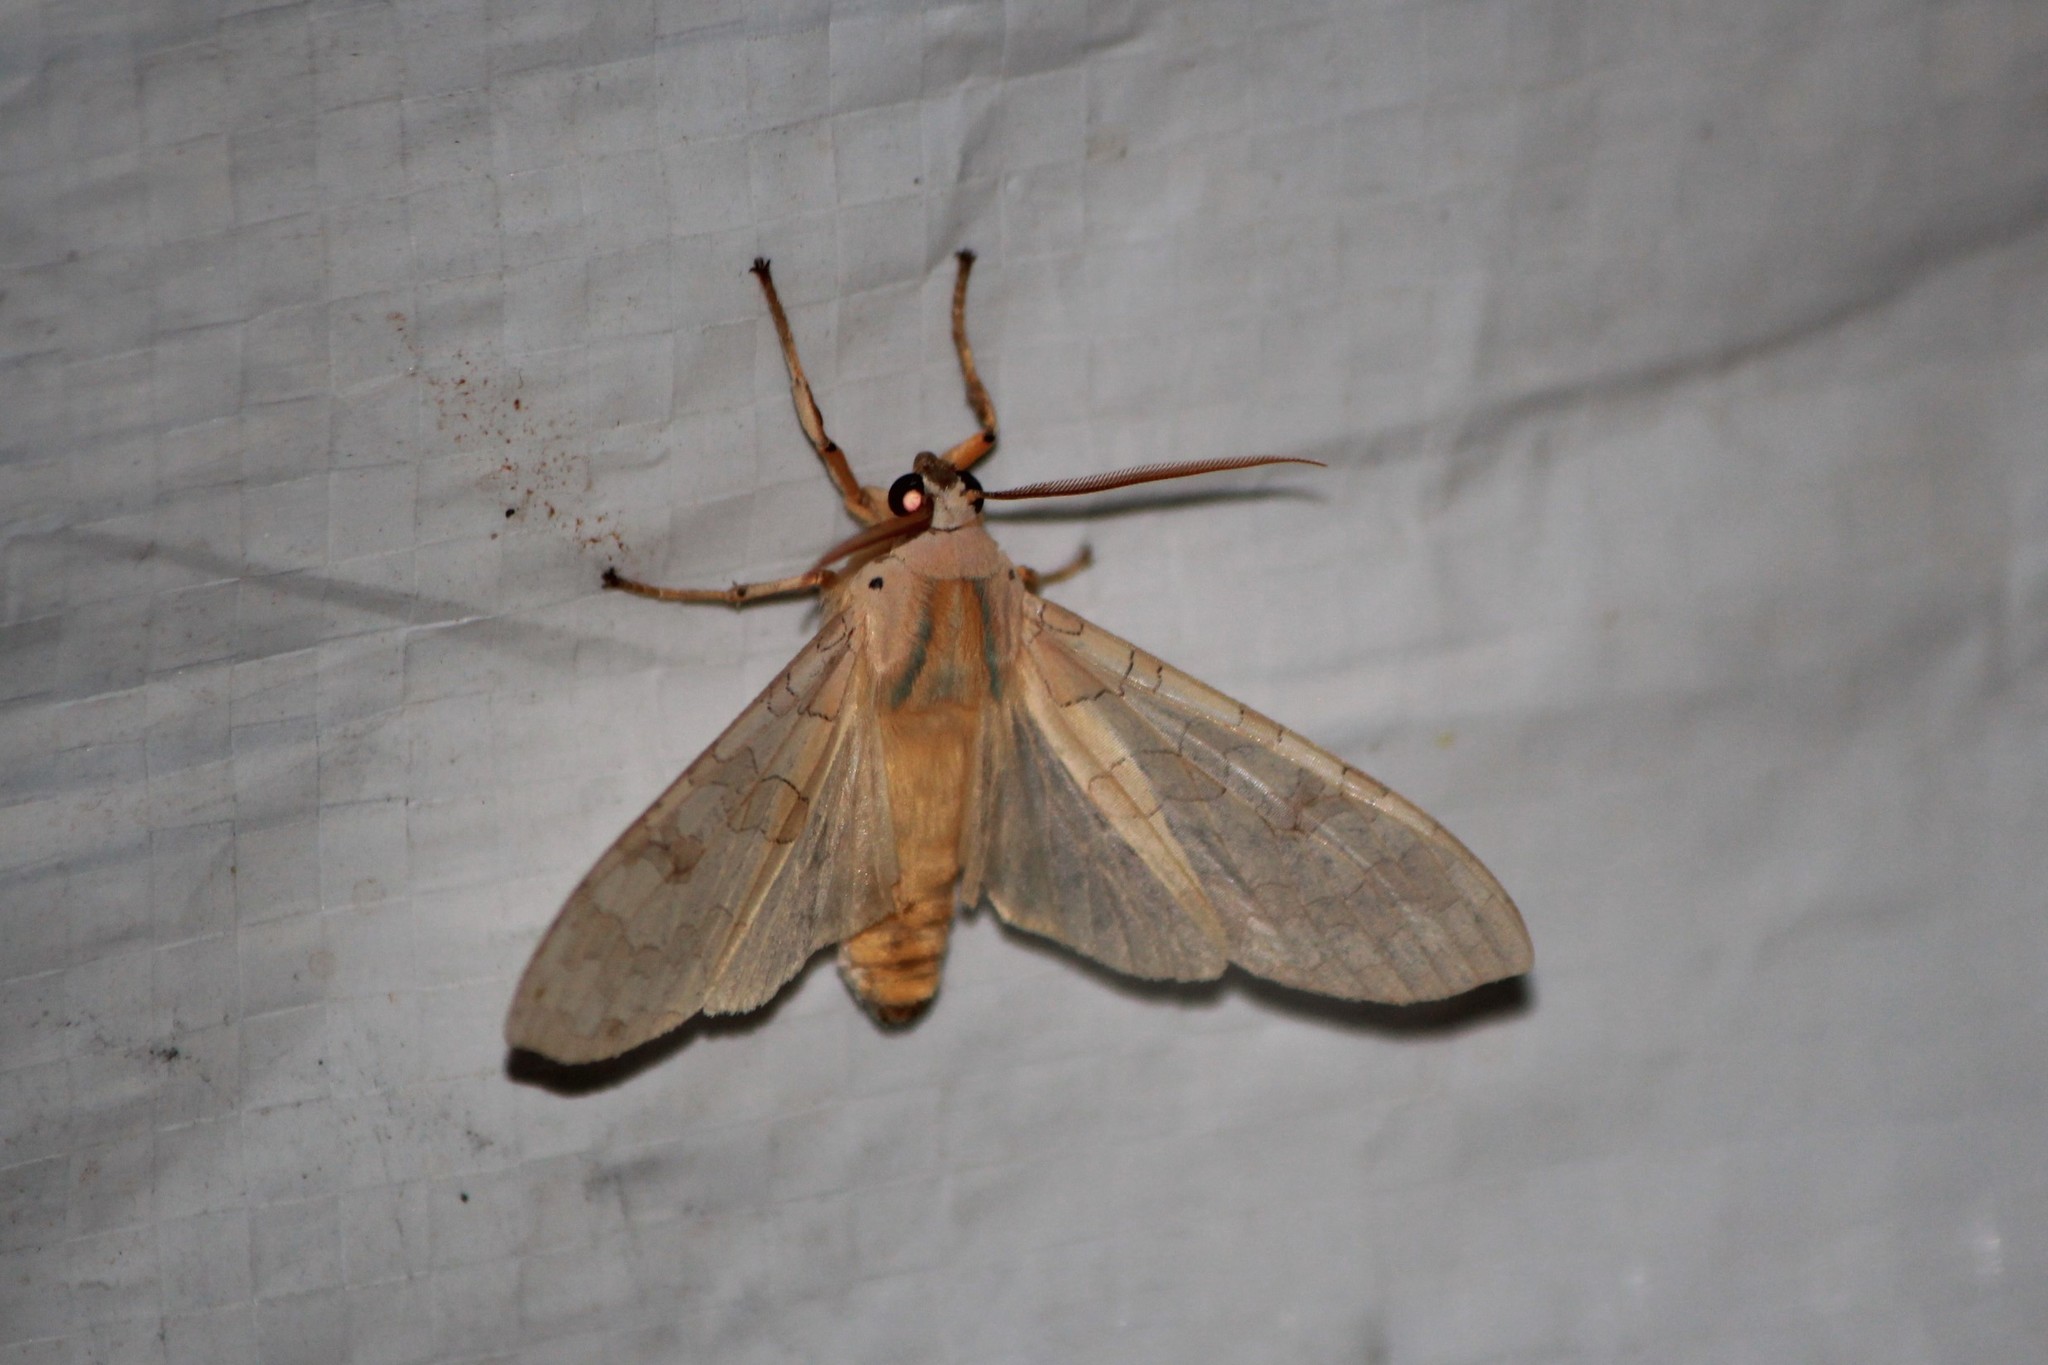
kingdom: Animalia
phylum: Arthropoda
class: Insecta
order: Lepidoptera
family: Erebidae
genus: Halysidota
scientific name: Halysidota tessellaris
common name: Banded tussock moth
